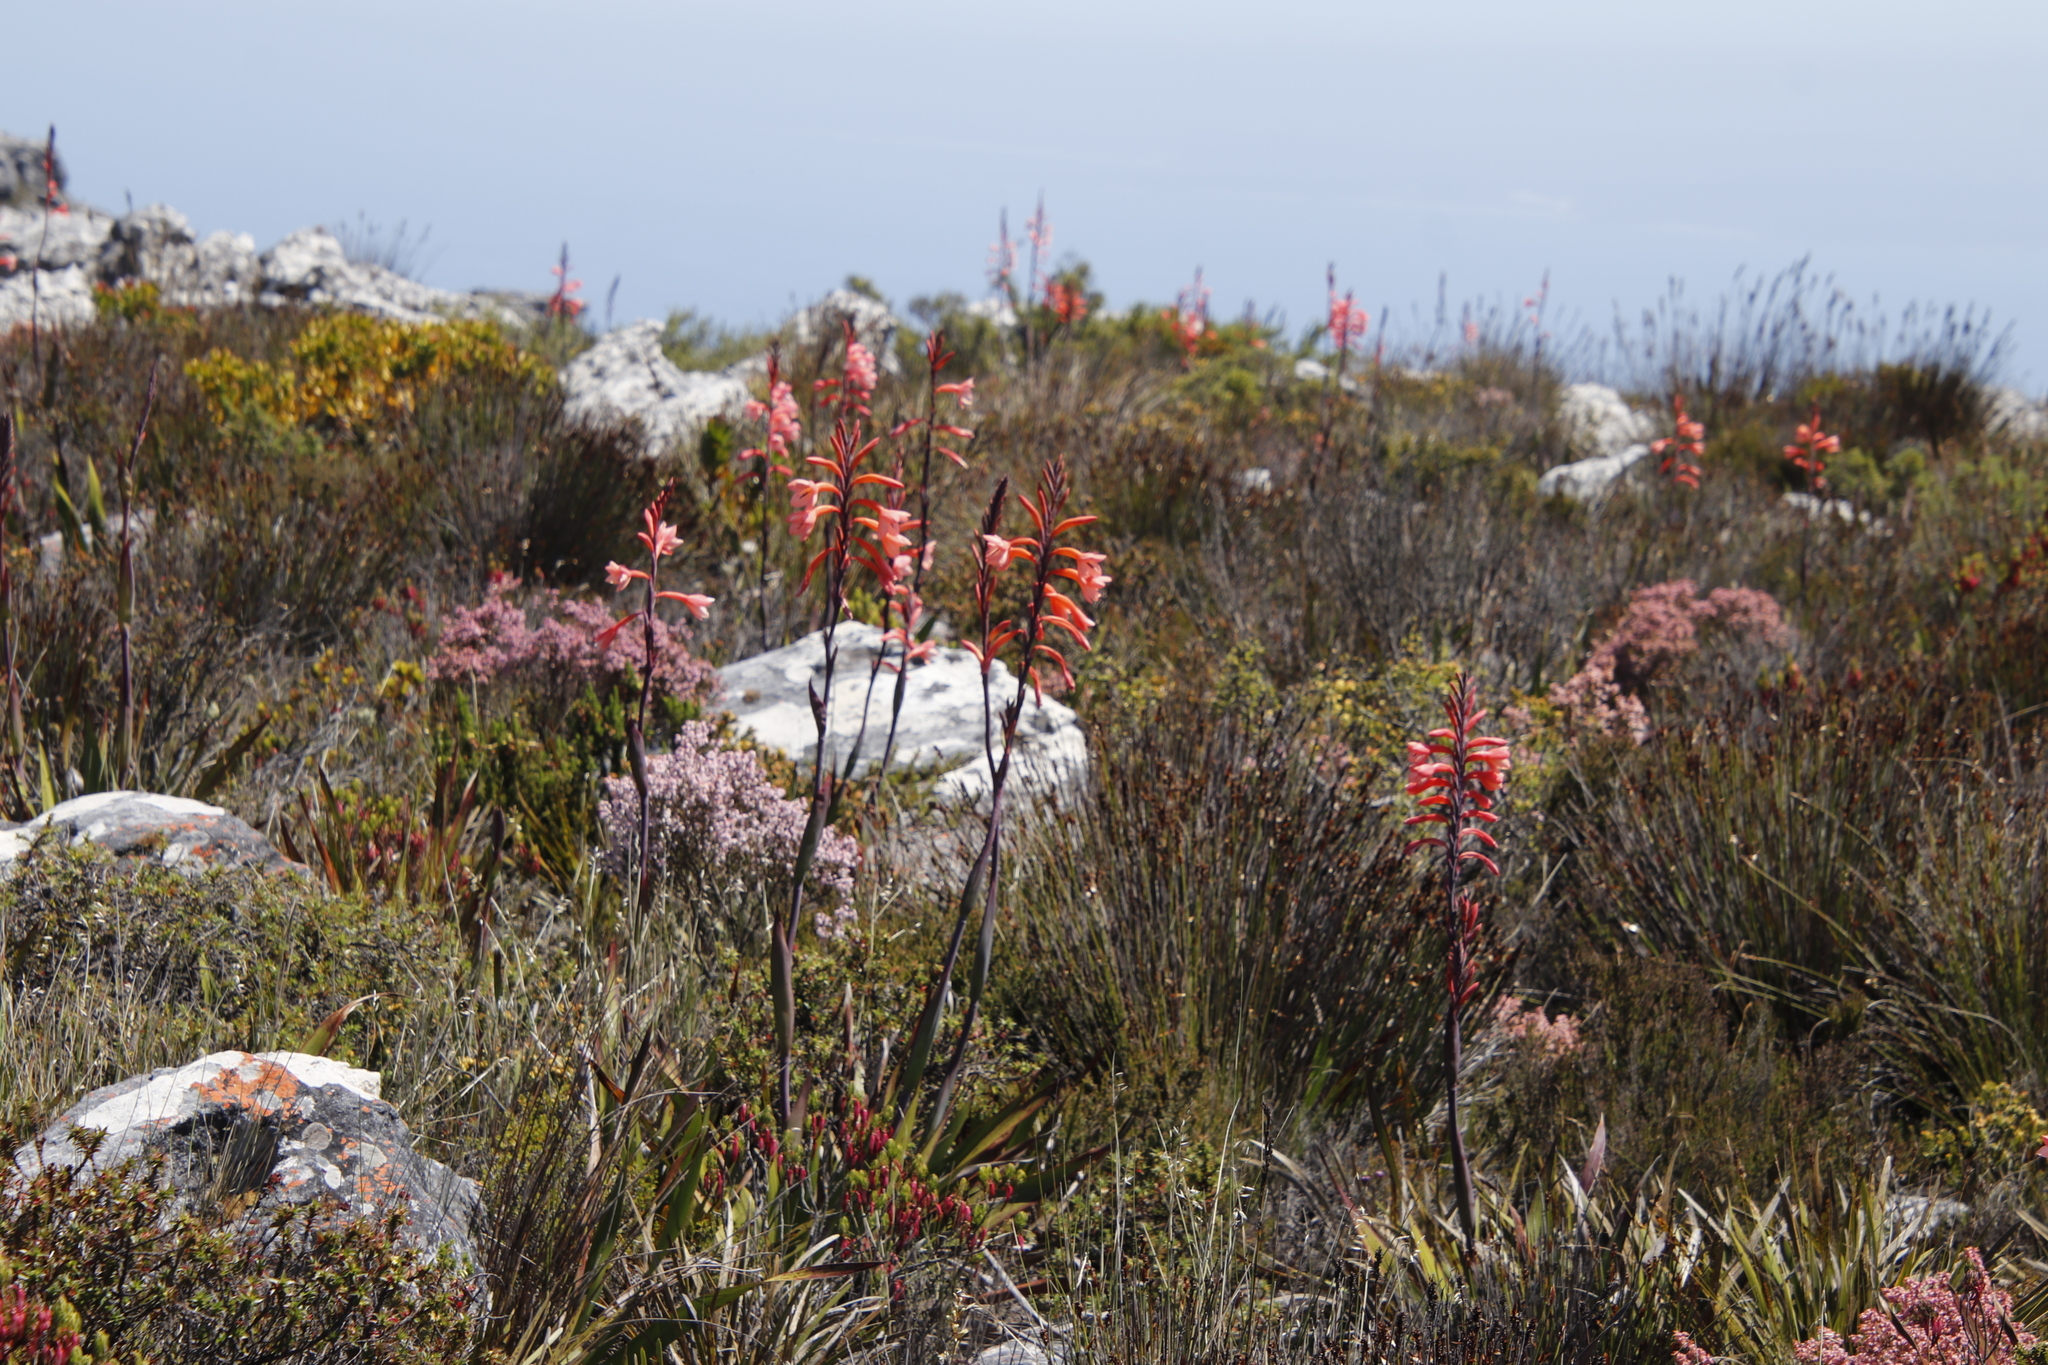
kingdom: Plantae
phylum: Tracheophyta
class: Liliopsida
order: Asparagales
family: Iridaceae
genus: Watsonia
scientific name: Watsonia tabularis
